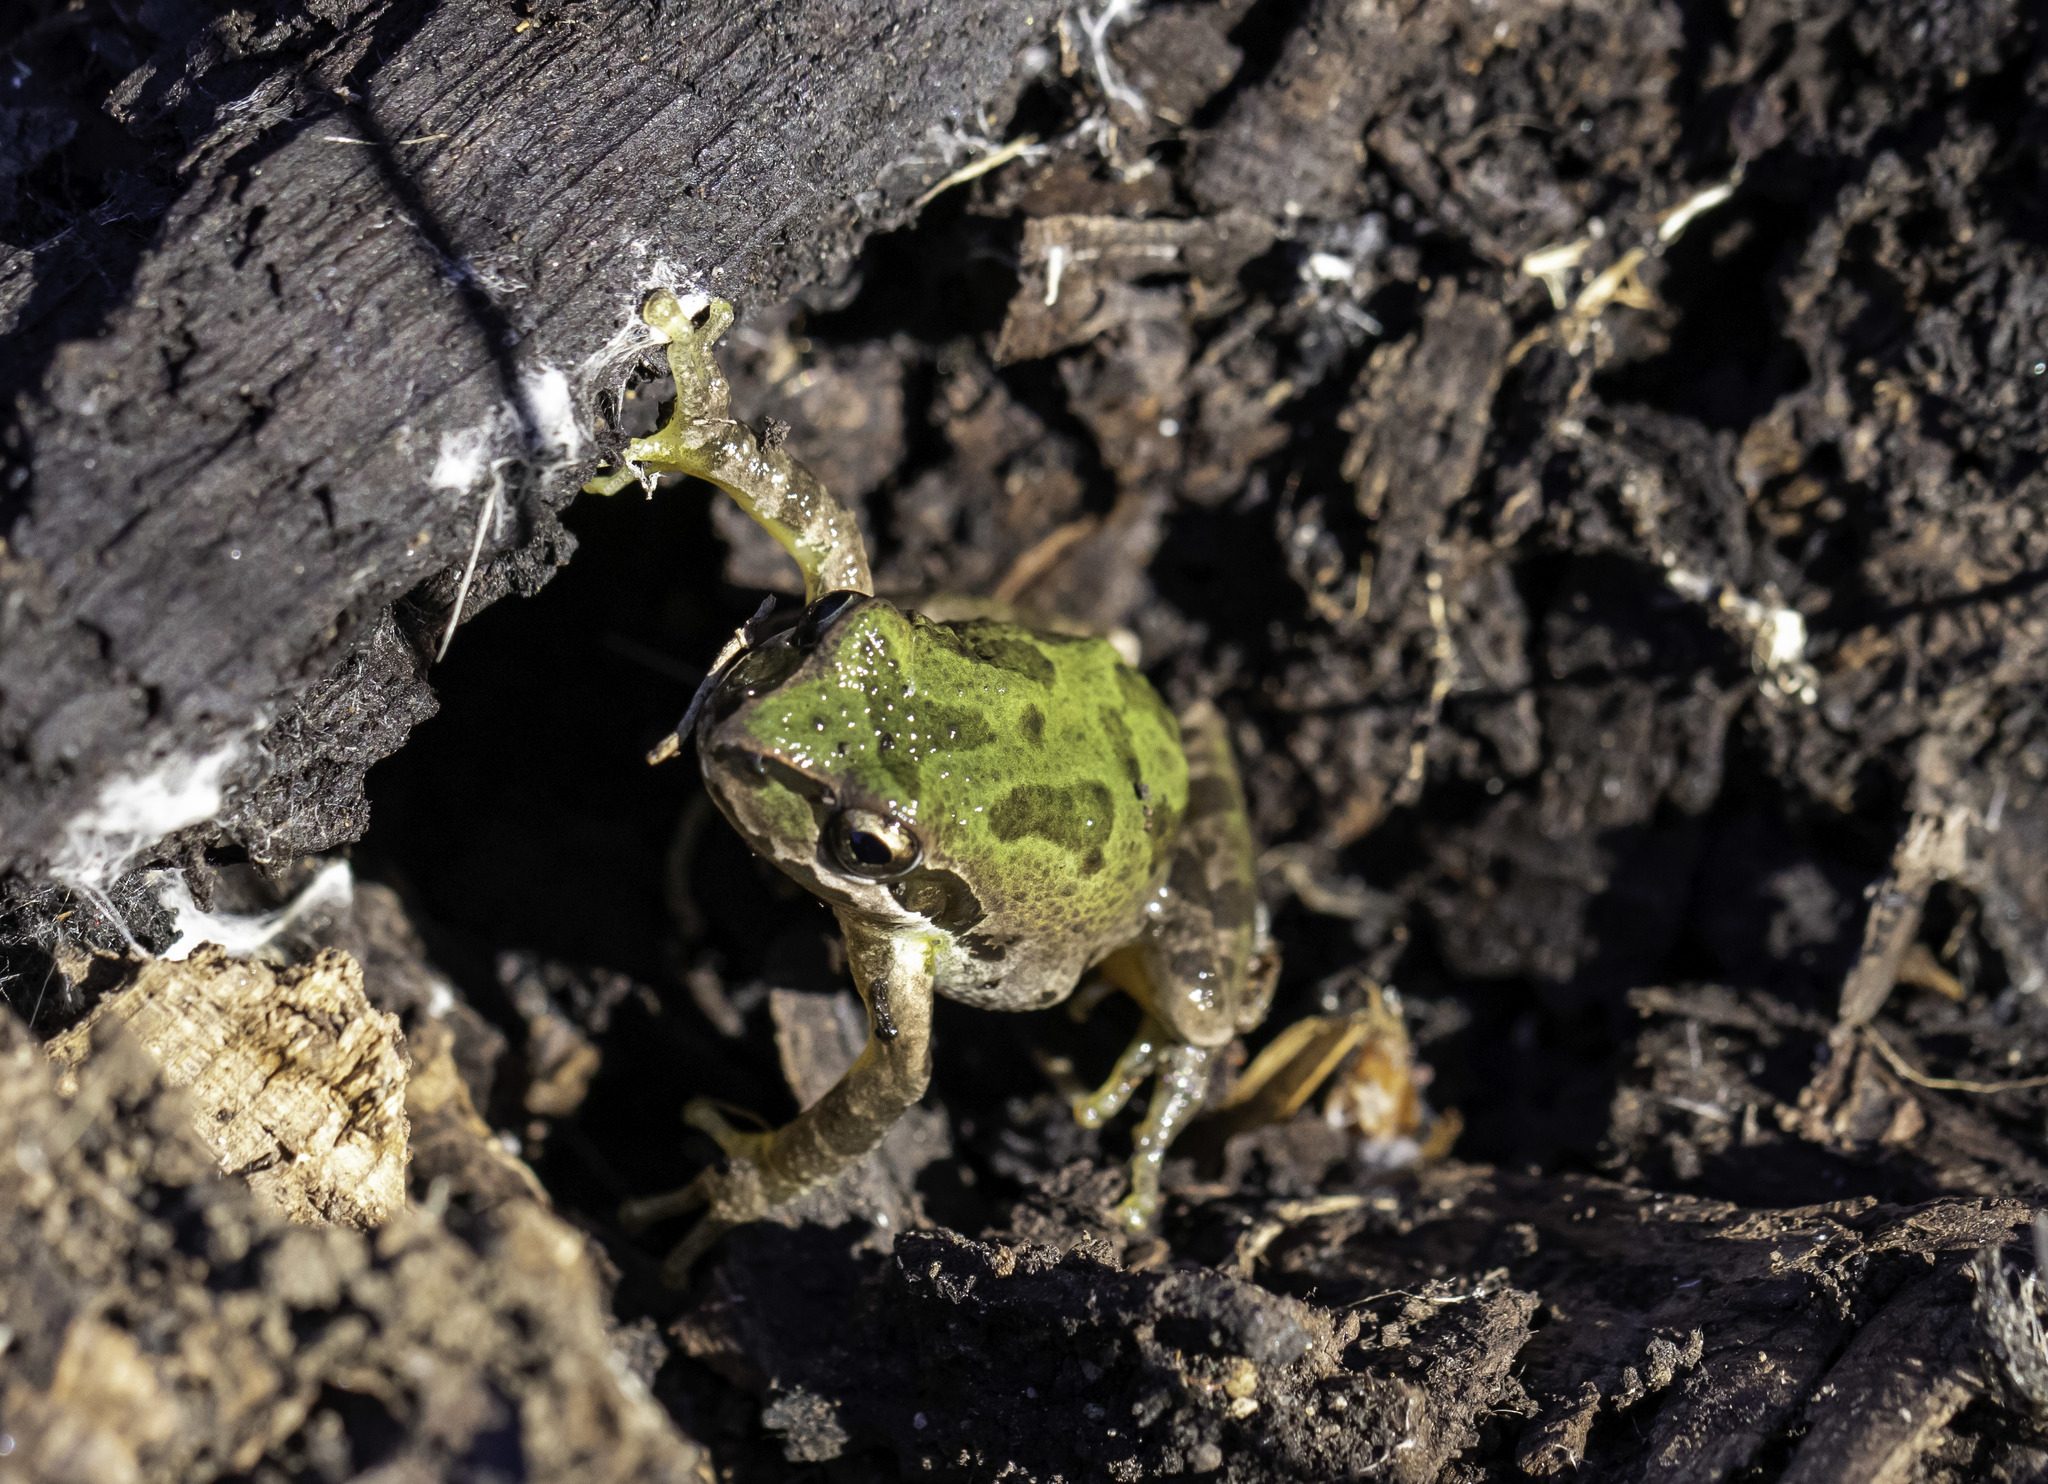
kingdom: Animalia
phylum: Chordata
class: Amphibia
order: Anura
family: Hylidae
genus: Pseudacris
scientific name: Pseudacris regilla
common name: Pacific chorus frog
